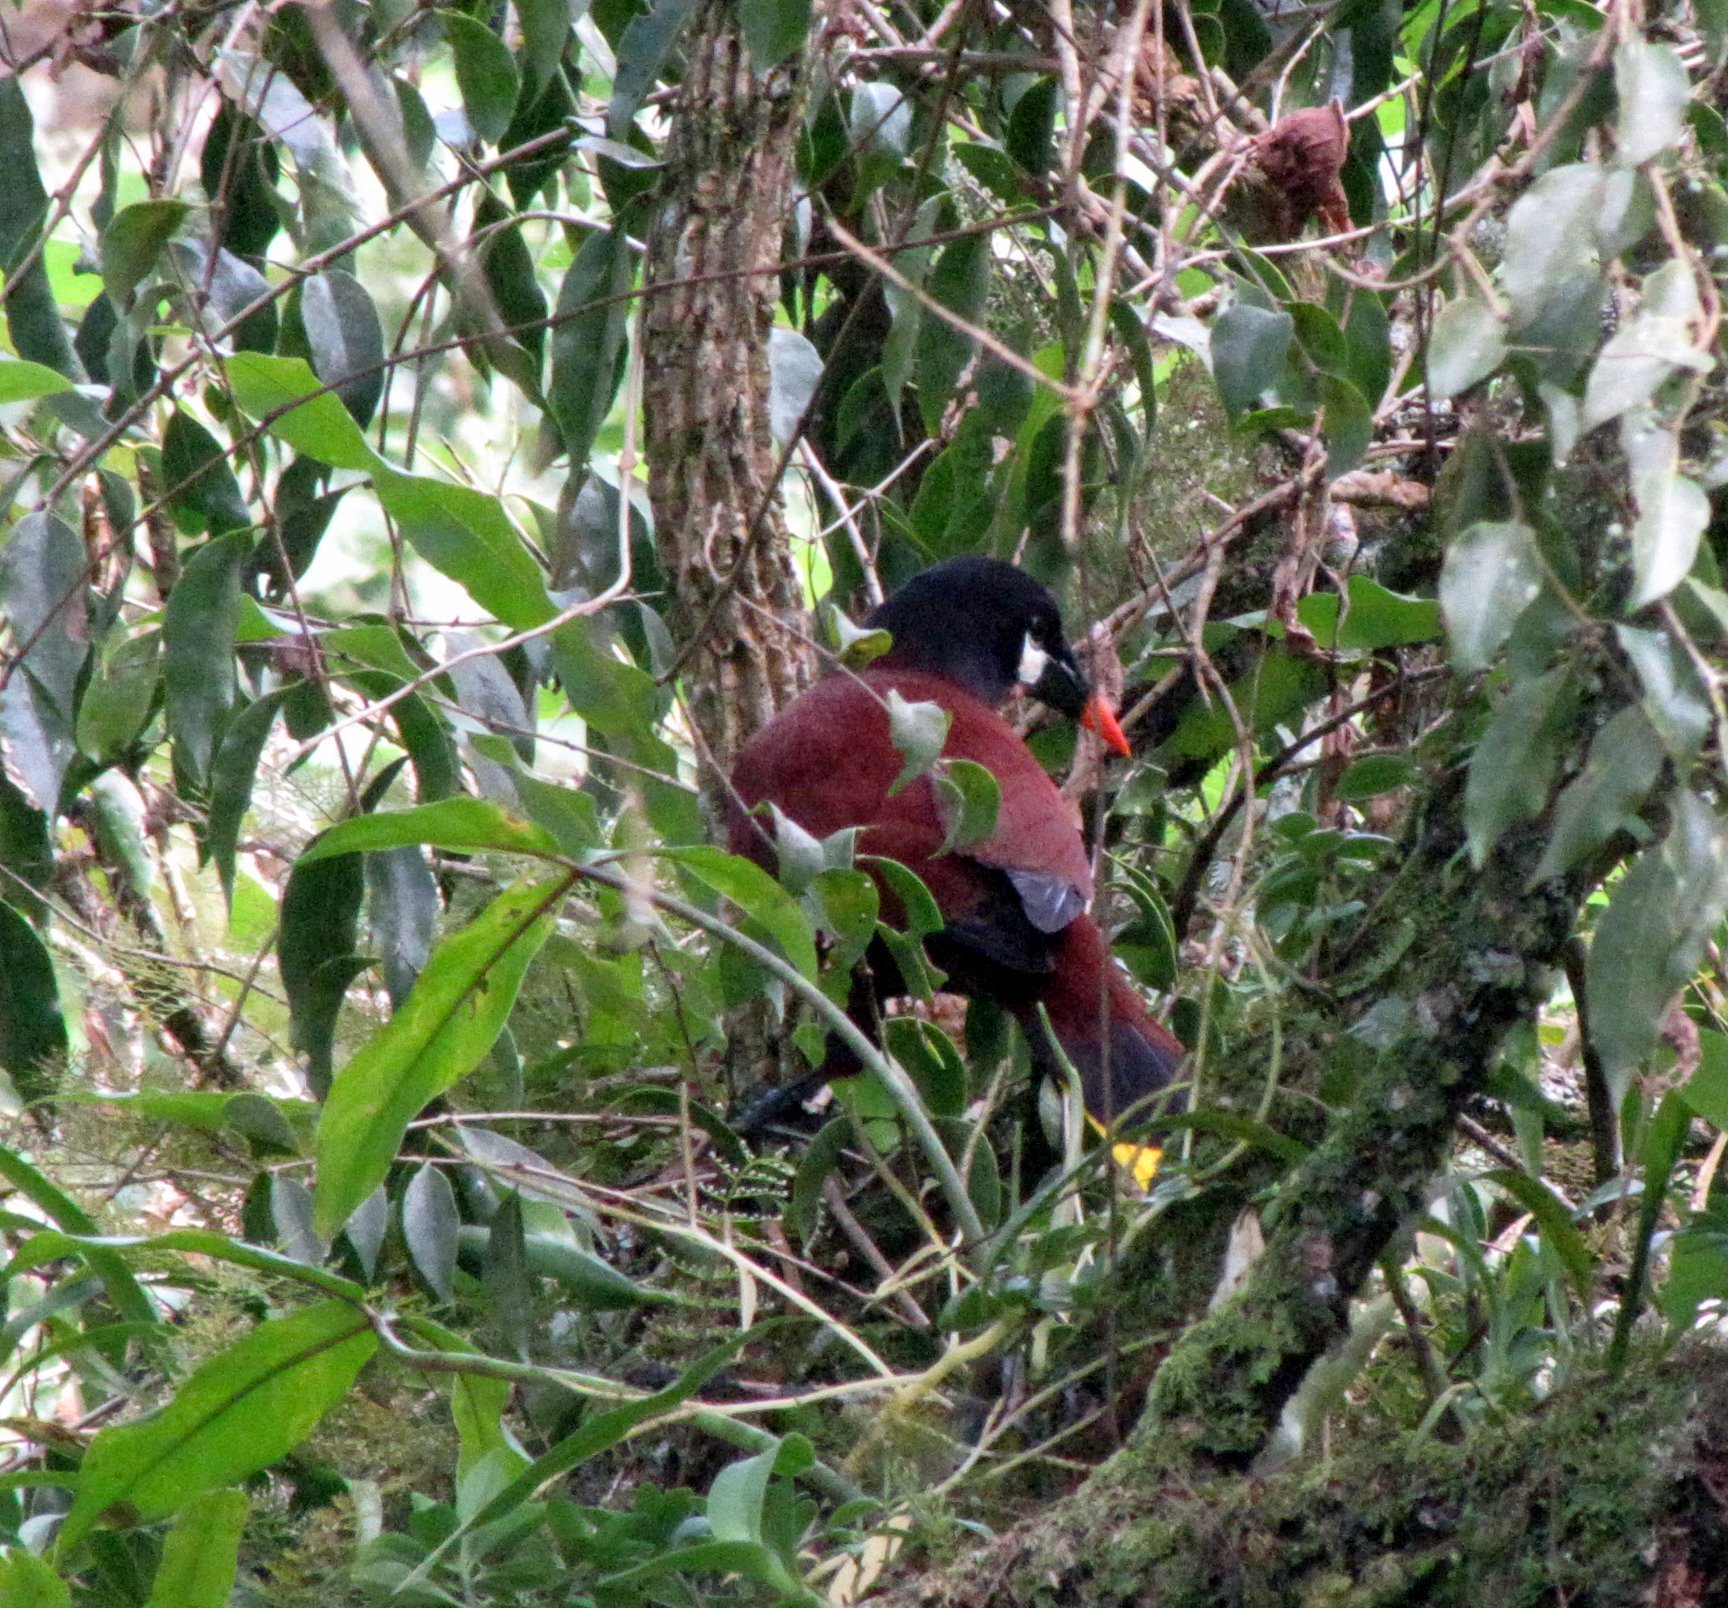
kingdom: Animalia
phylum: Chordata
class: Aves
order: Passeriformes
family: Icteridae
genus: Psarocolius
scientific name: Psarocolius montezuma
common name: Montezuma oropendola
